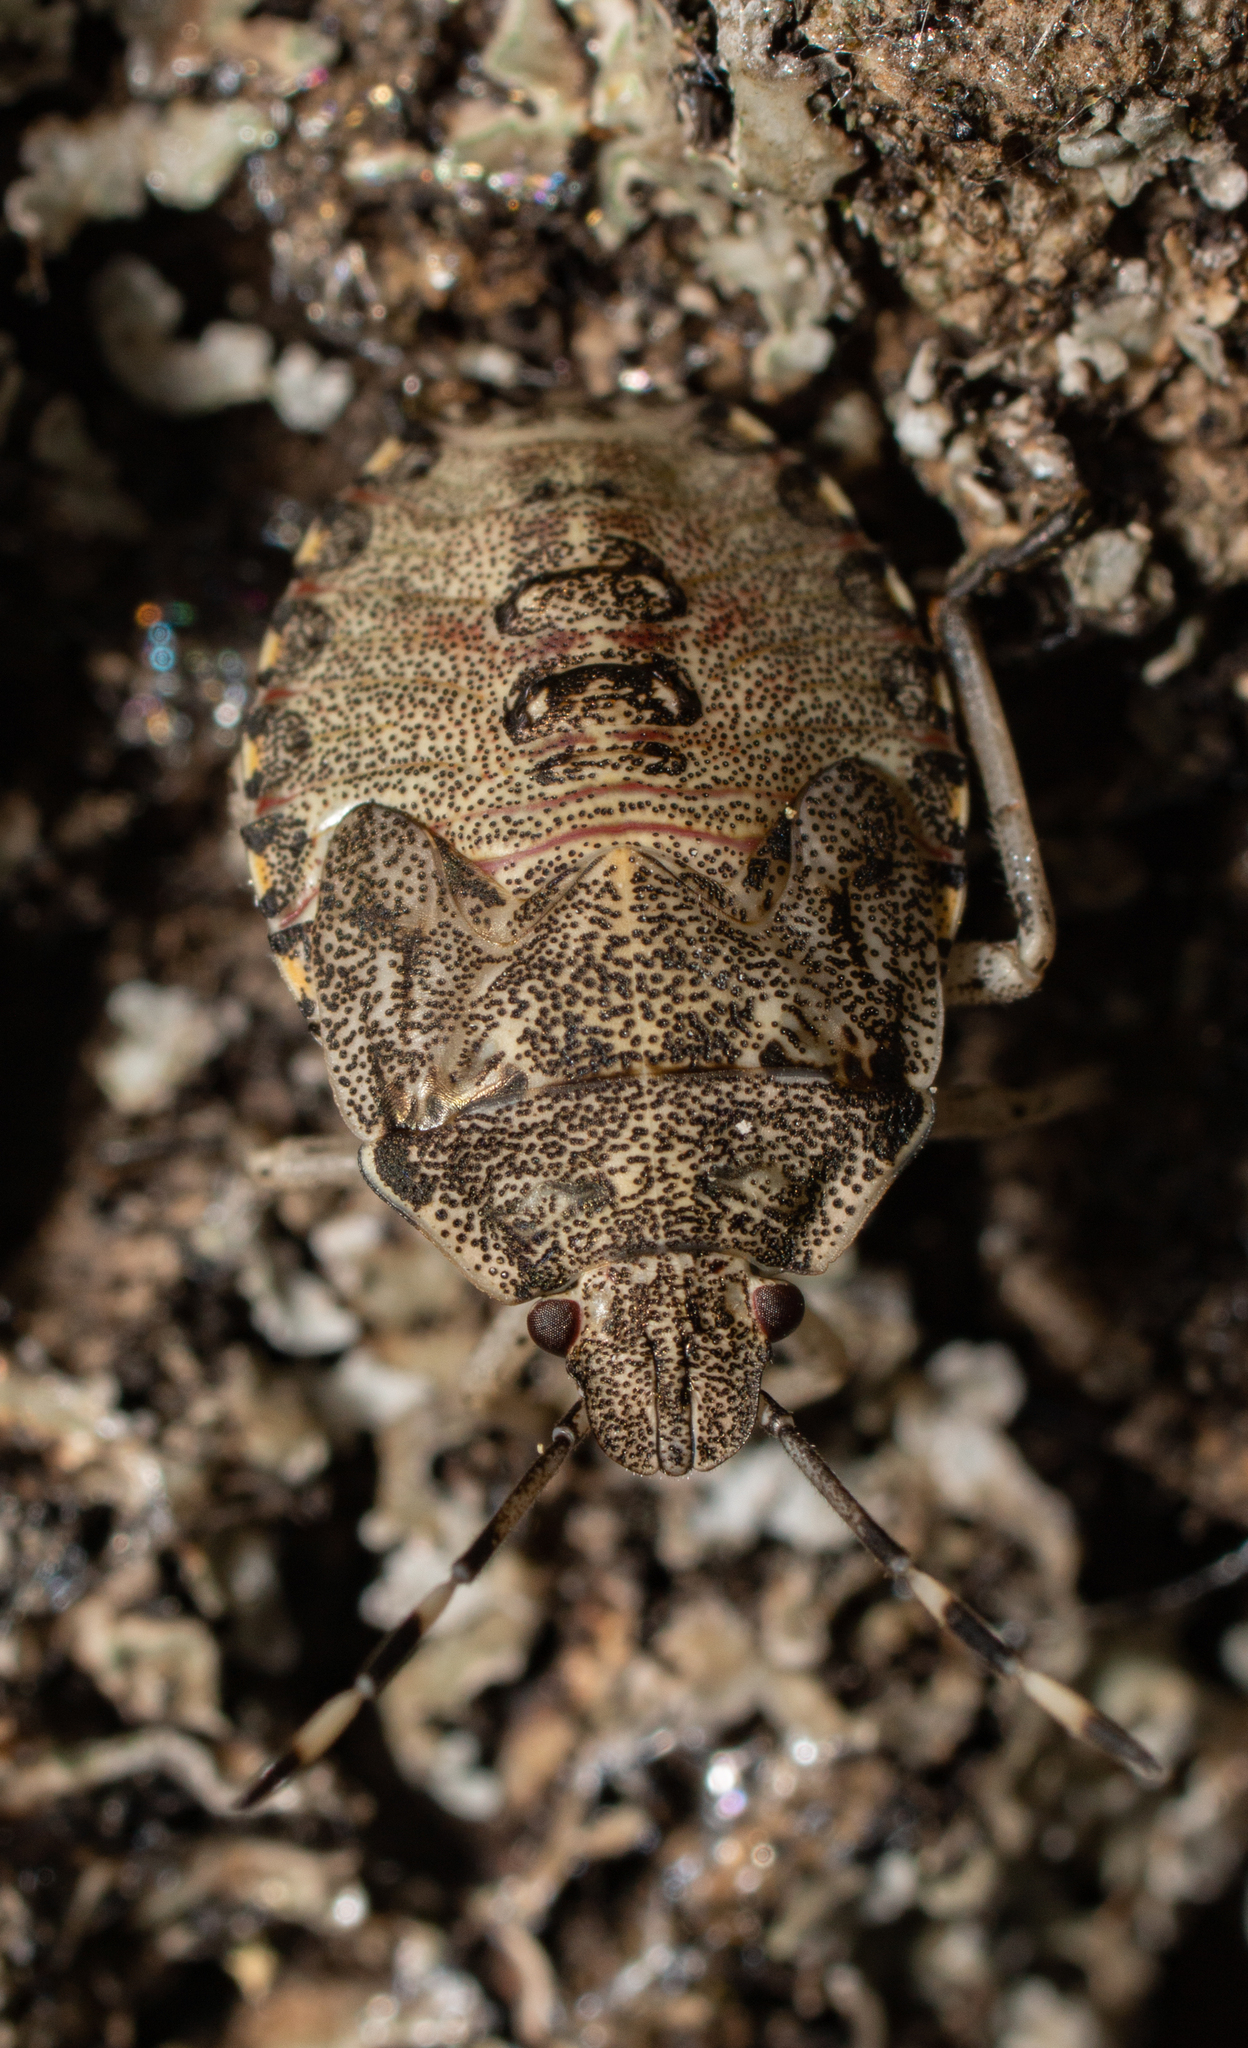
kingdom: Animalia
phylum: Arthropoda
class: Insecta
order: Hemiptera
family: Pentatomidae
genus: Rhaphigaster
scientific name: Rhaphigaster nebulosa
